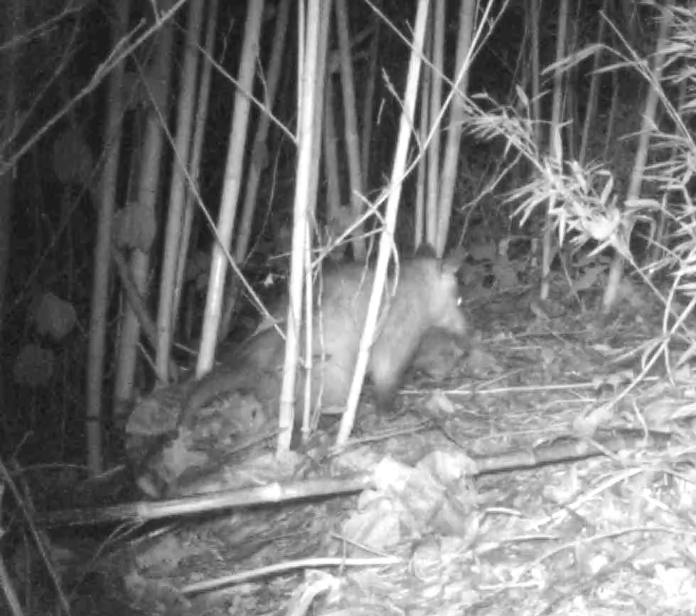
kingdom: Animalia
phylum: Chordata
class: Mammalia
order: Didelphimorphia
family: Didelphidae
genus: Didelphis
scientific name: Didelphis marsupialis
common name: Common opossum
